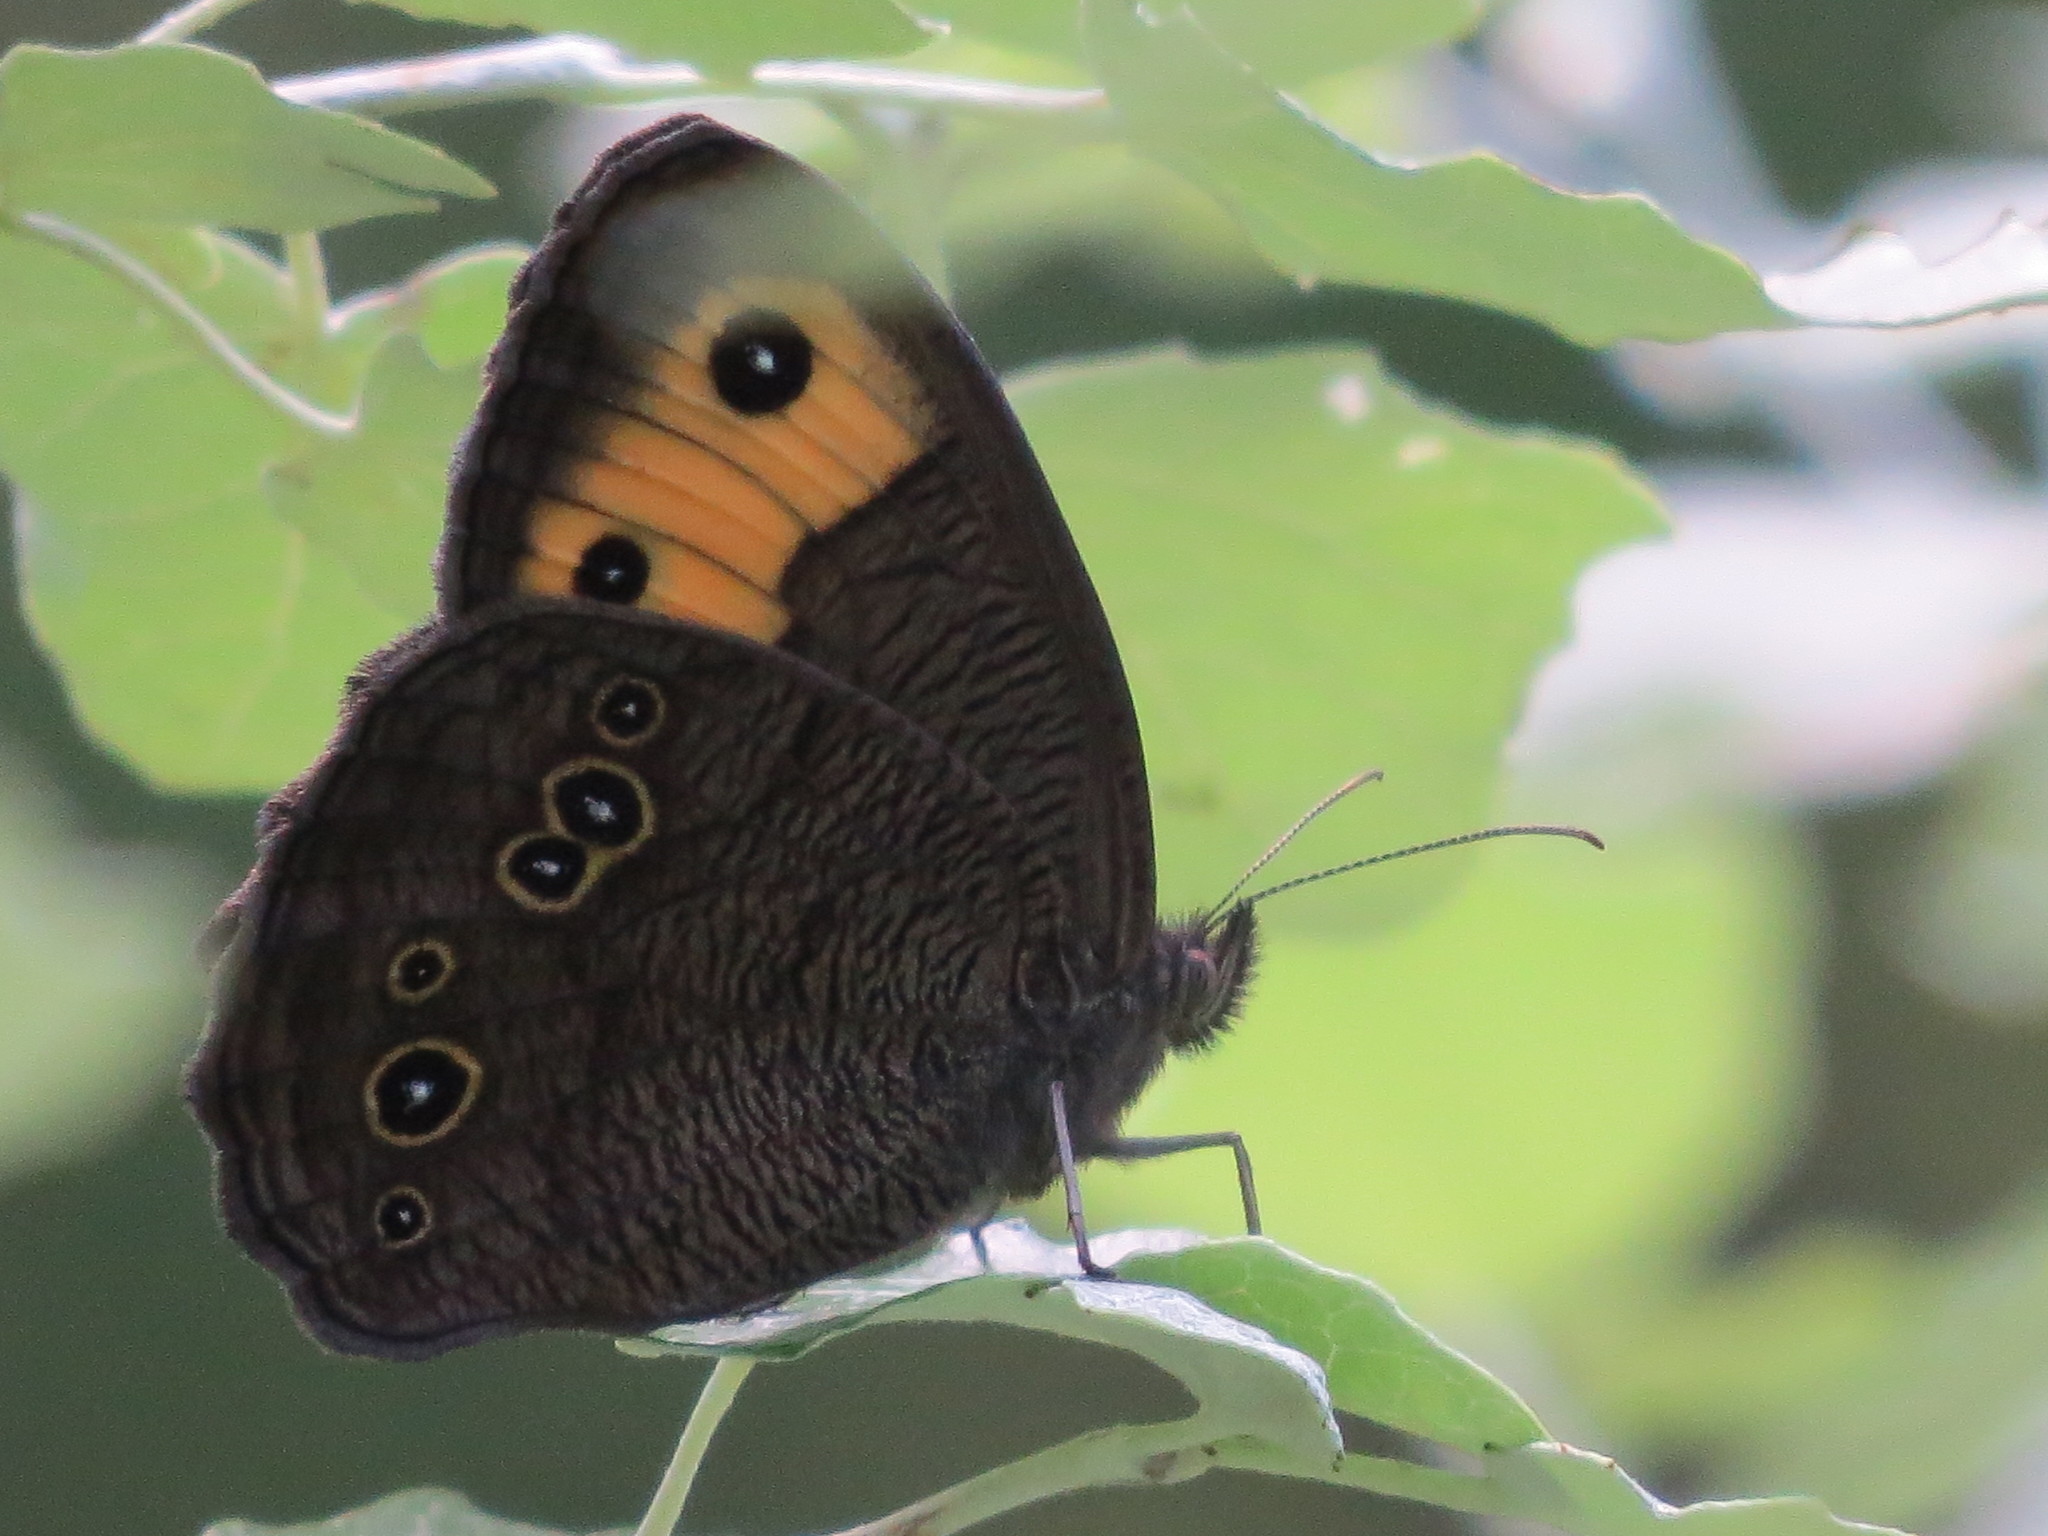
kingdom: Animalia
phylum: Arthropoda
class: Insecta
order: Lepidoptera
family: Nymphalidae
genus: Cercyonis
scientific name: Cercyonis pegala
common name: Common wood-nymph
